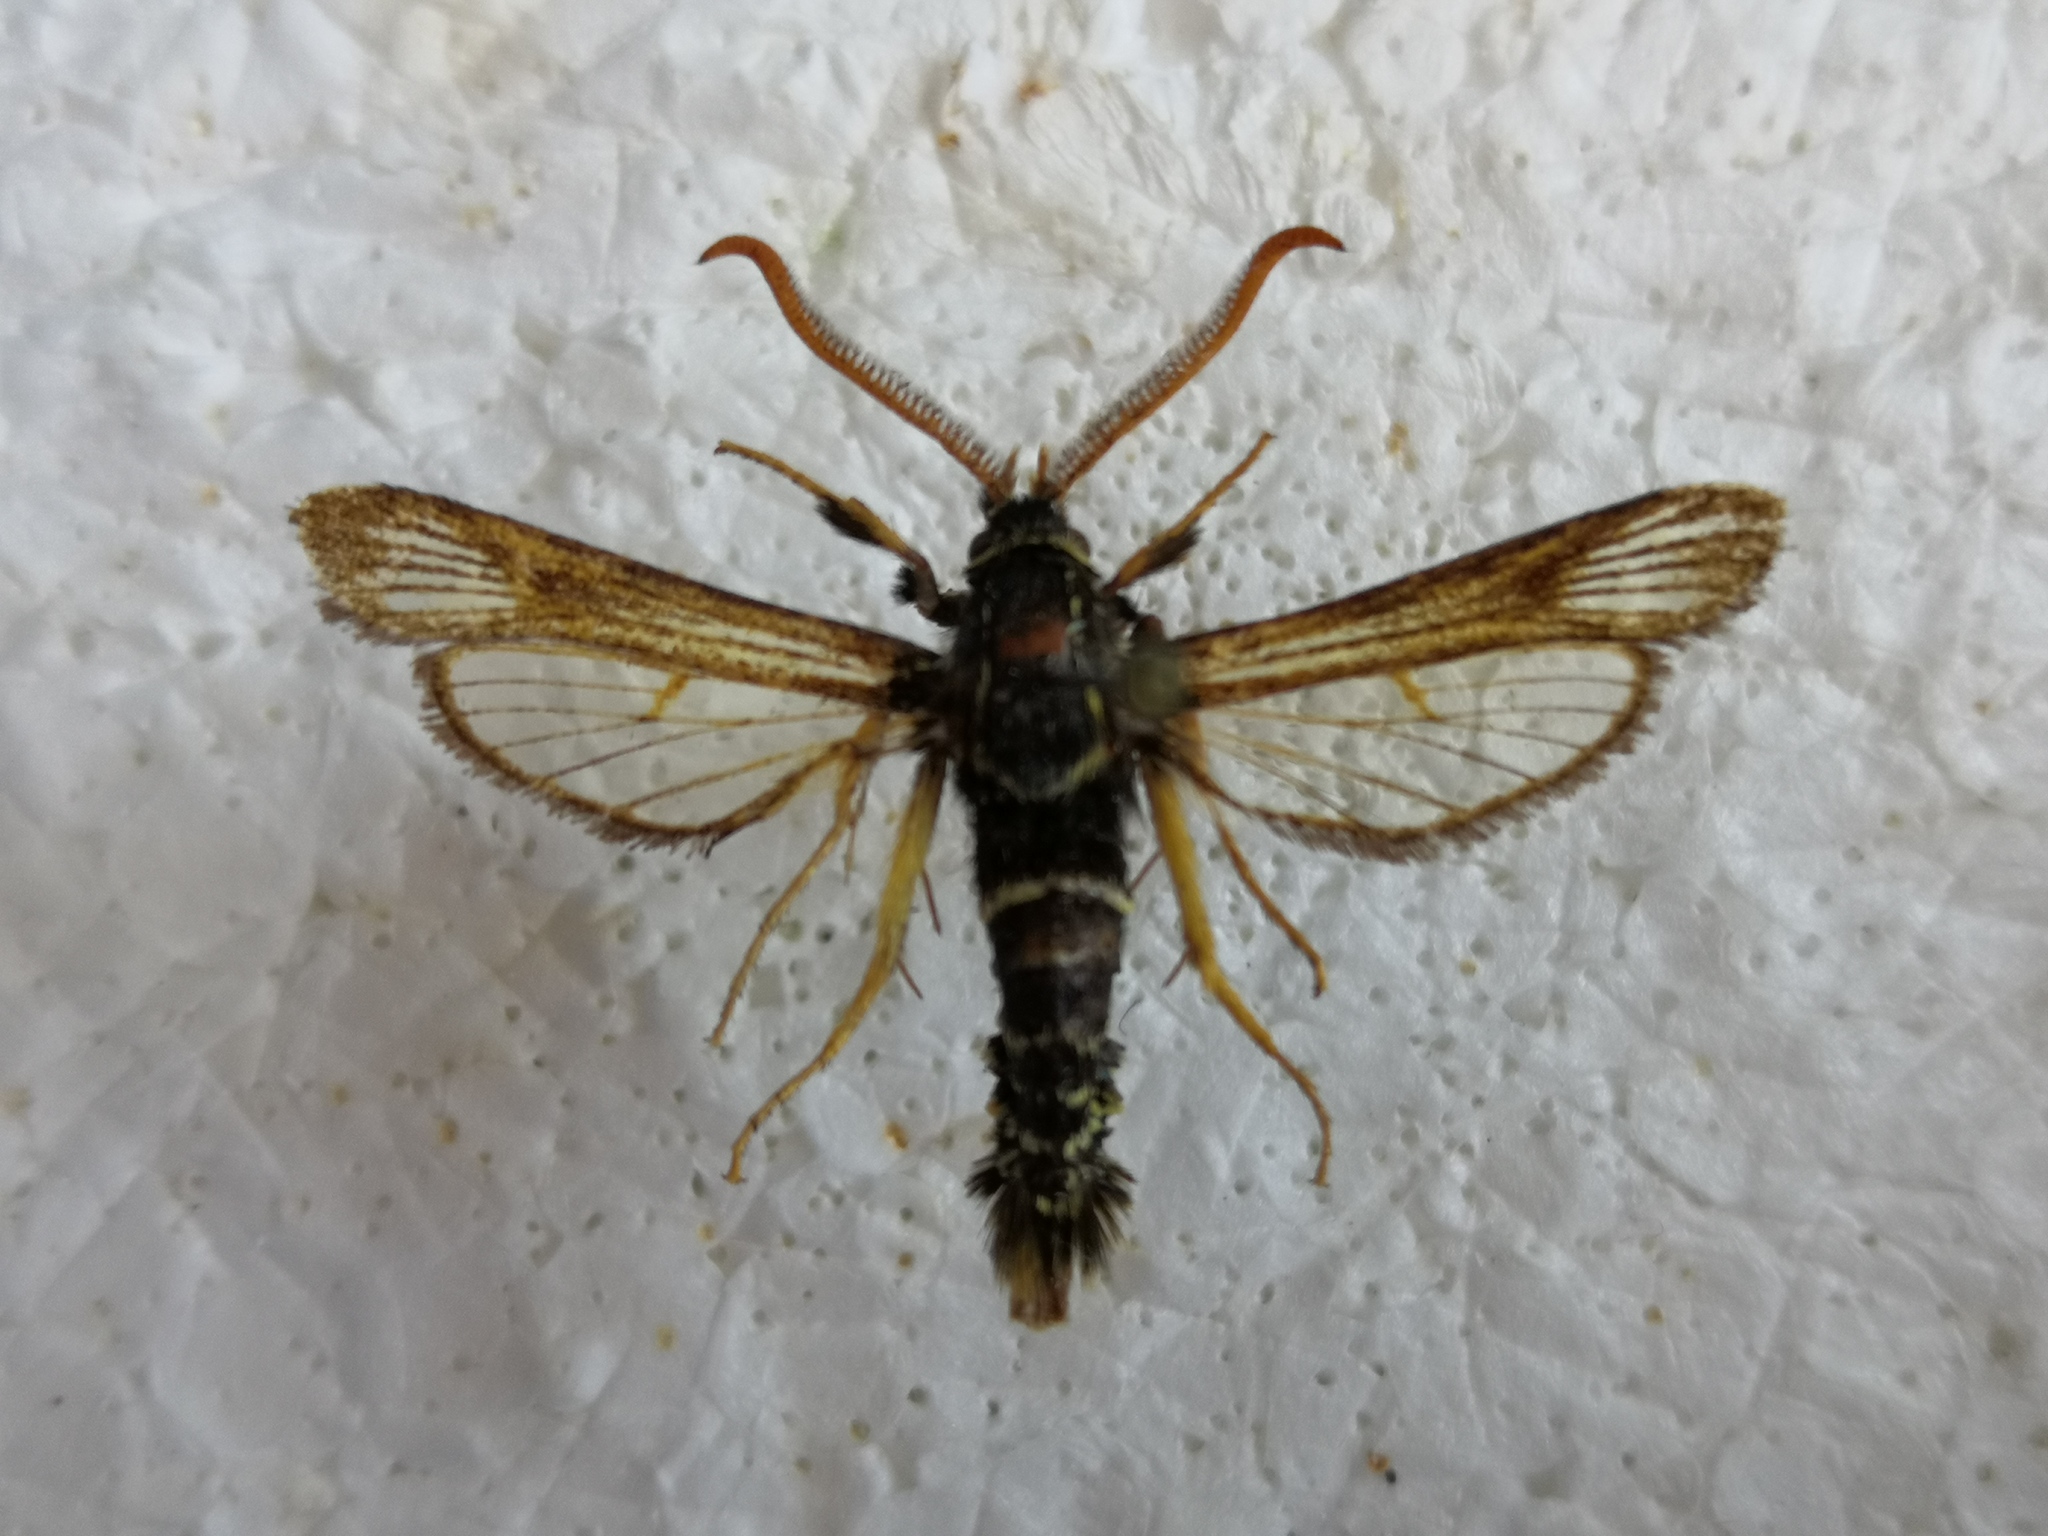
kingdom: Animalia
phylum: Arthropoda
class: Insecta
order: Lepidoptera
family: Sesiidae
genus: Paranthrene
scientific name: Paranthrene insolitus
